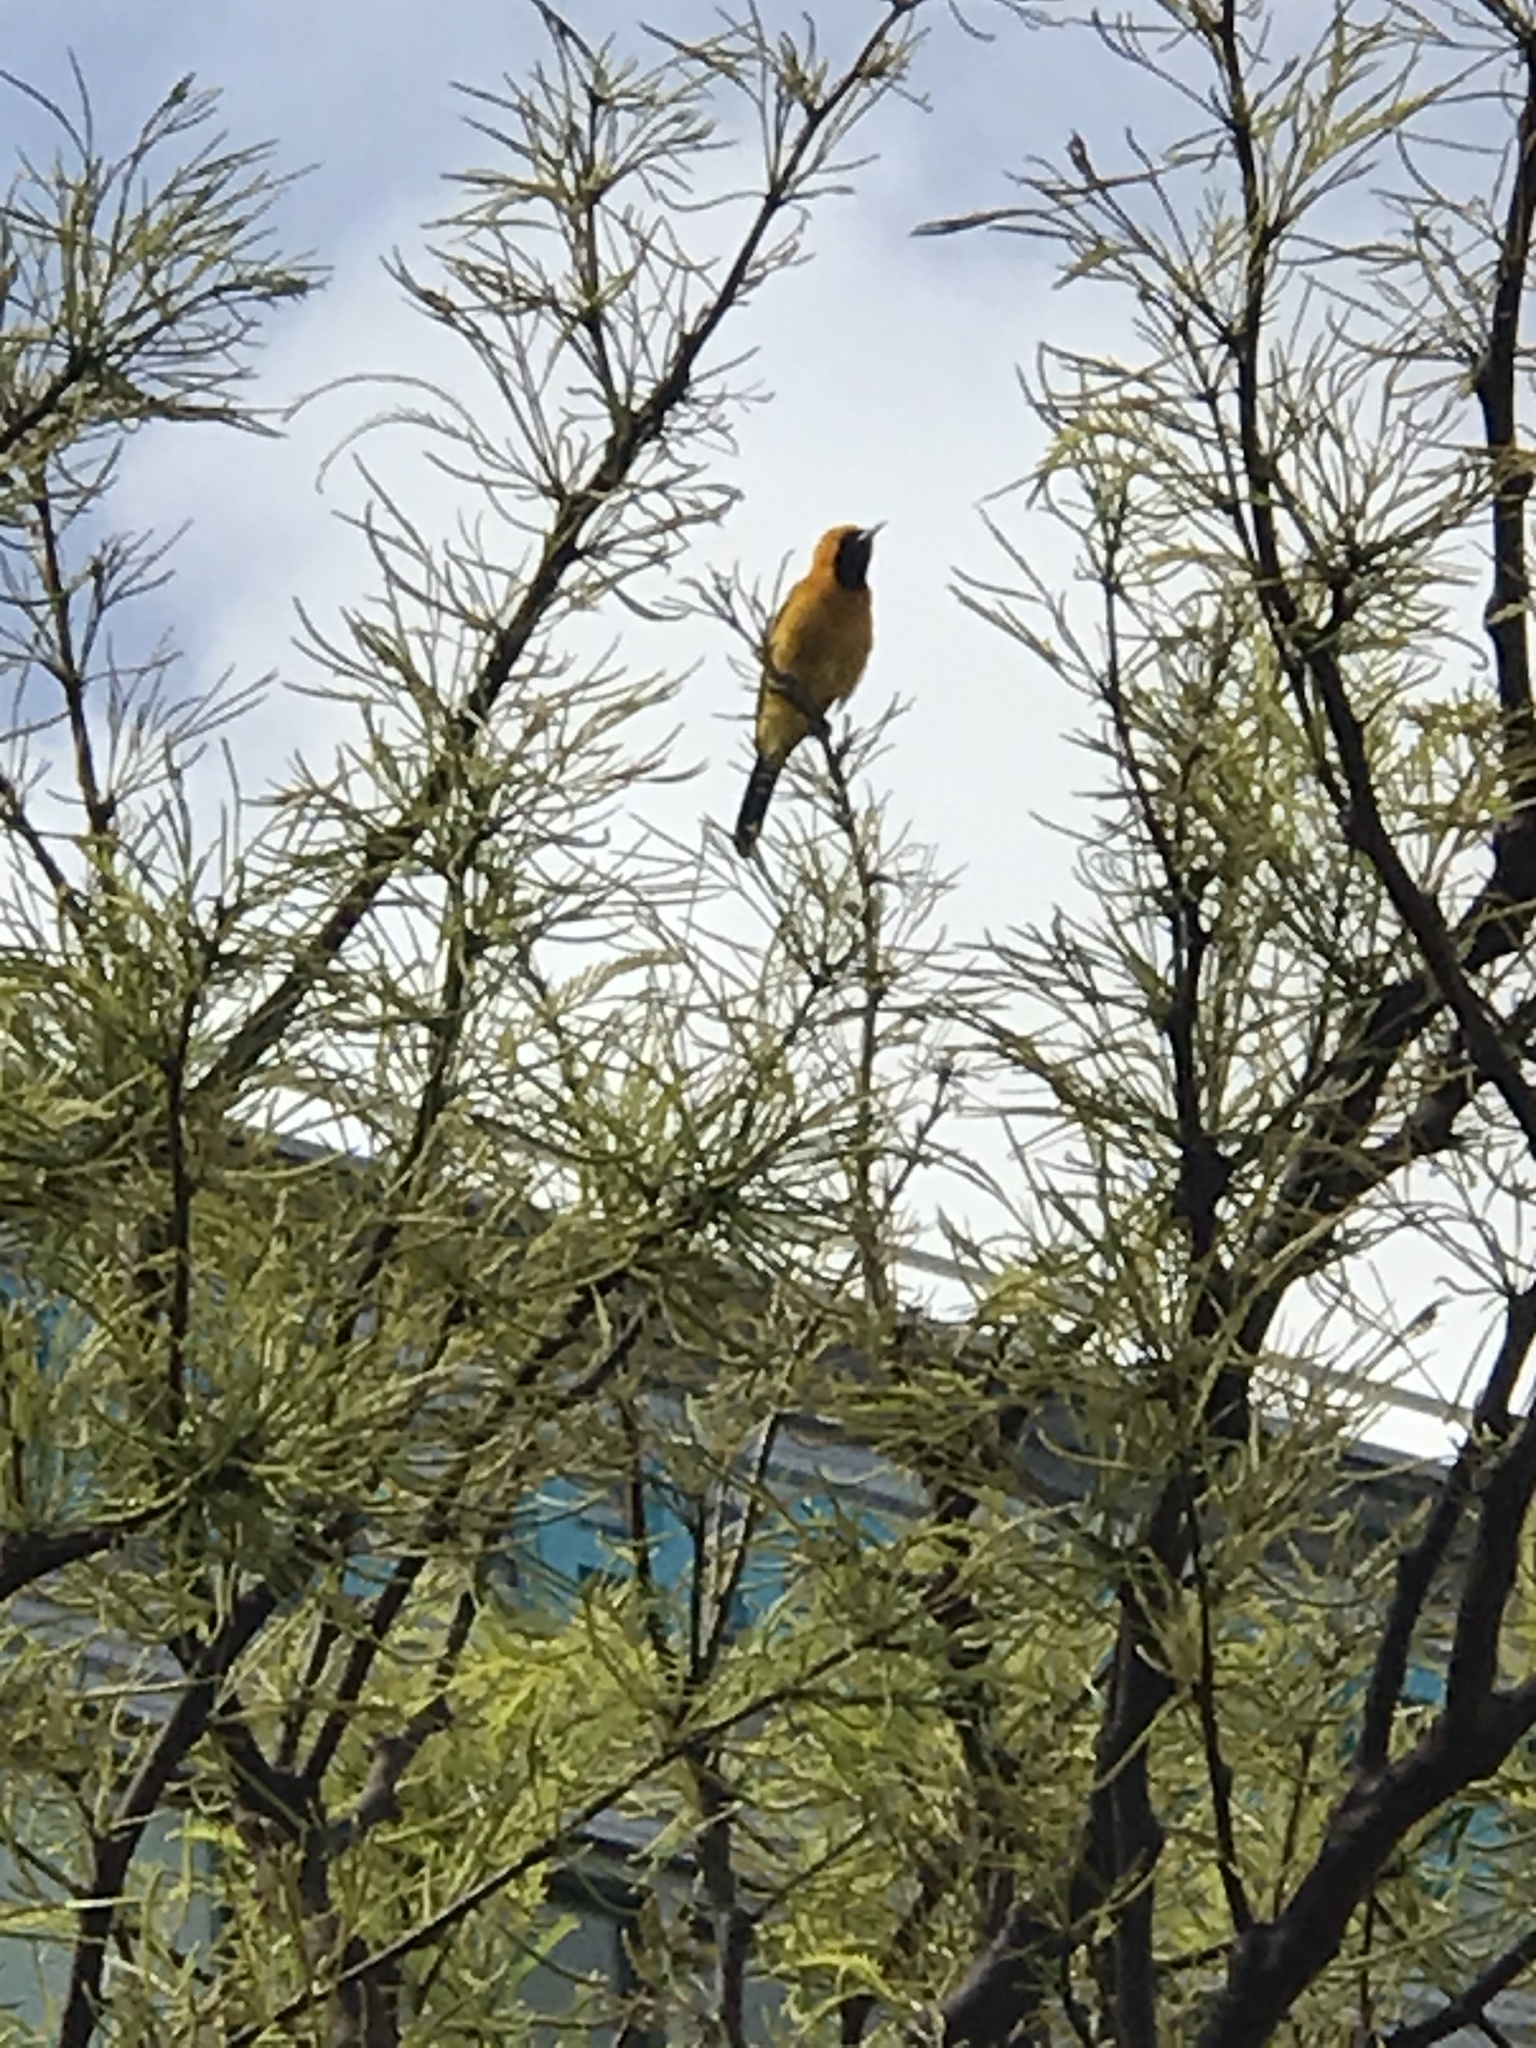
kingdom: Animalia
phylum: Chordata
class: Aves
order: Passeriformes
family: Icteridae
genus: Icterus
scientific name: Icterus cucullatus
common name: Hooded oriole
